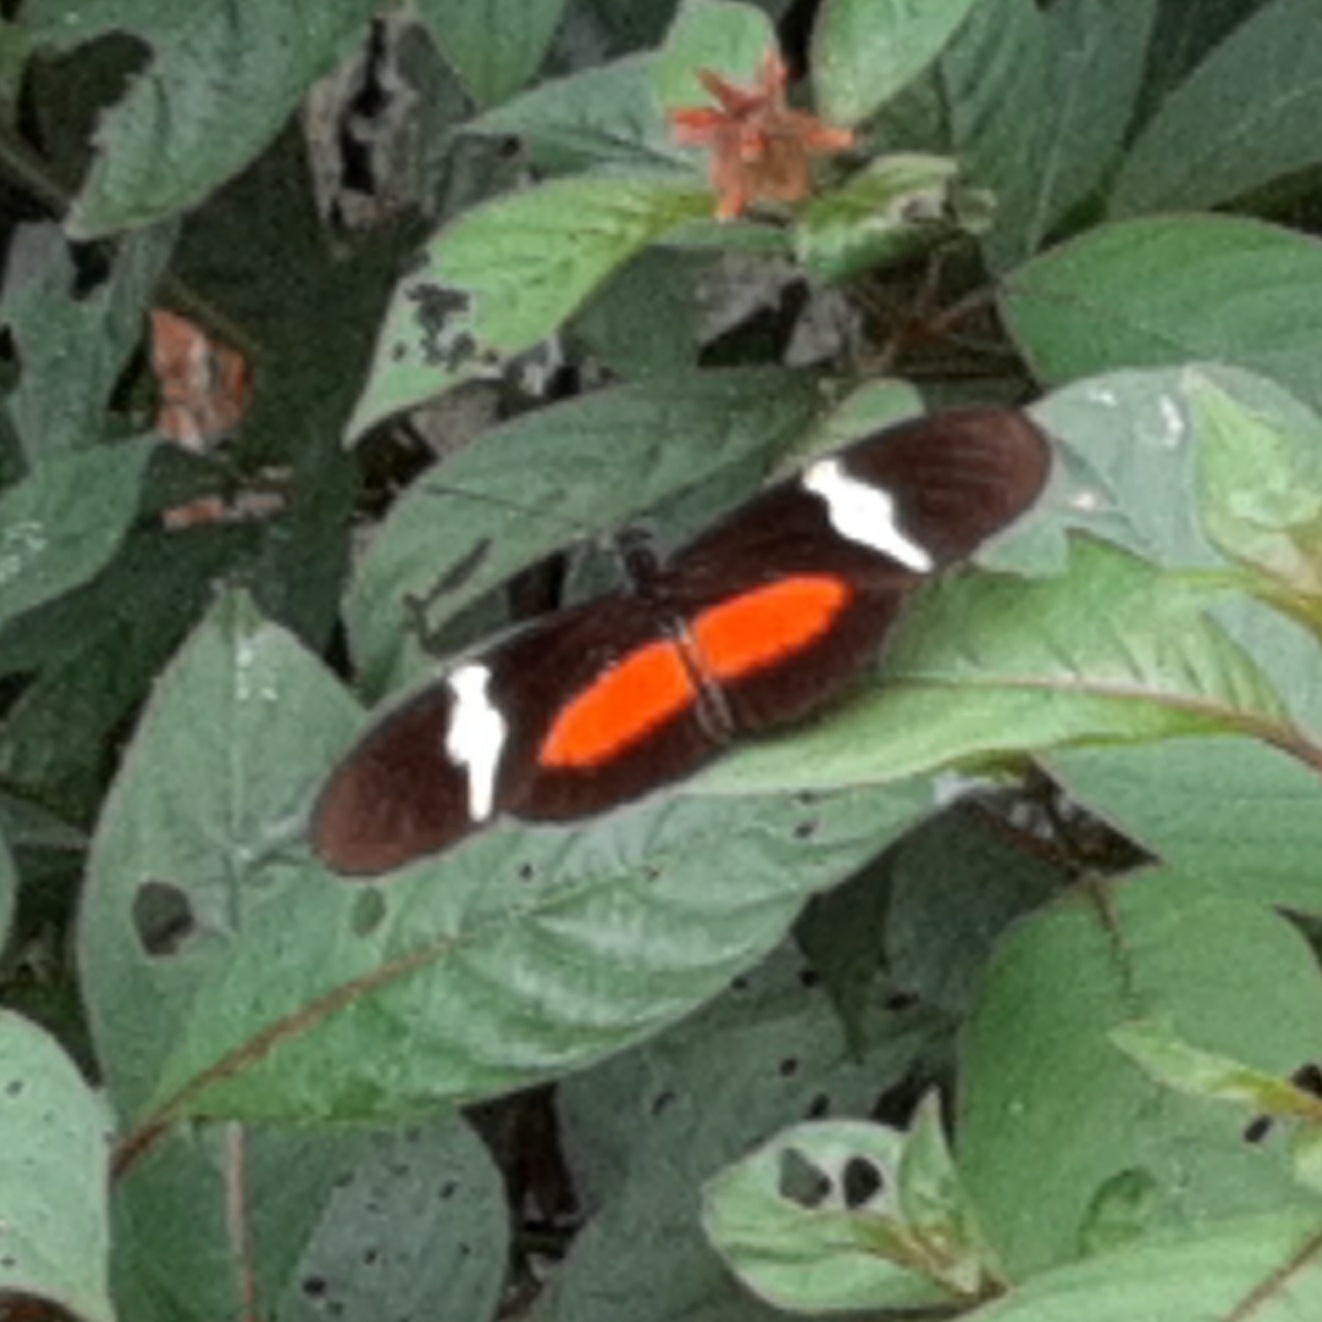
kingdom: Animalia
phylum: Arthropoda
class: Insecta
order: Lepidoptera
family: Nymphalidae
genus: Heliconius
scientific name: Heliconius clysonymus
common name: Clysonymus longwing
